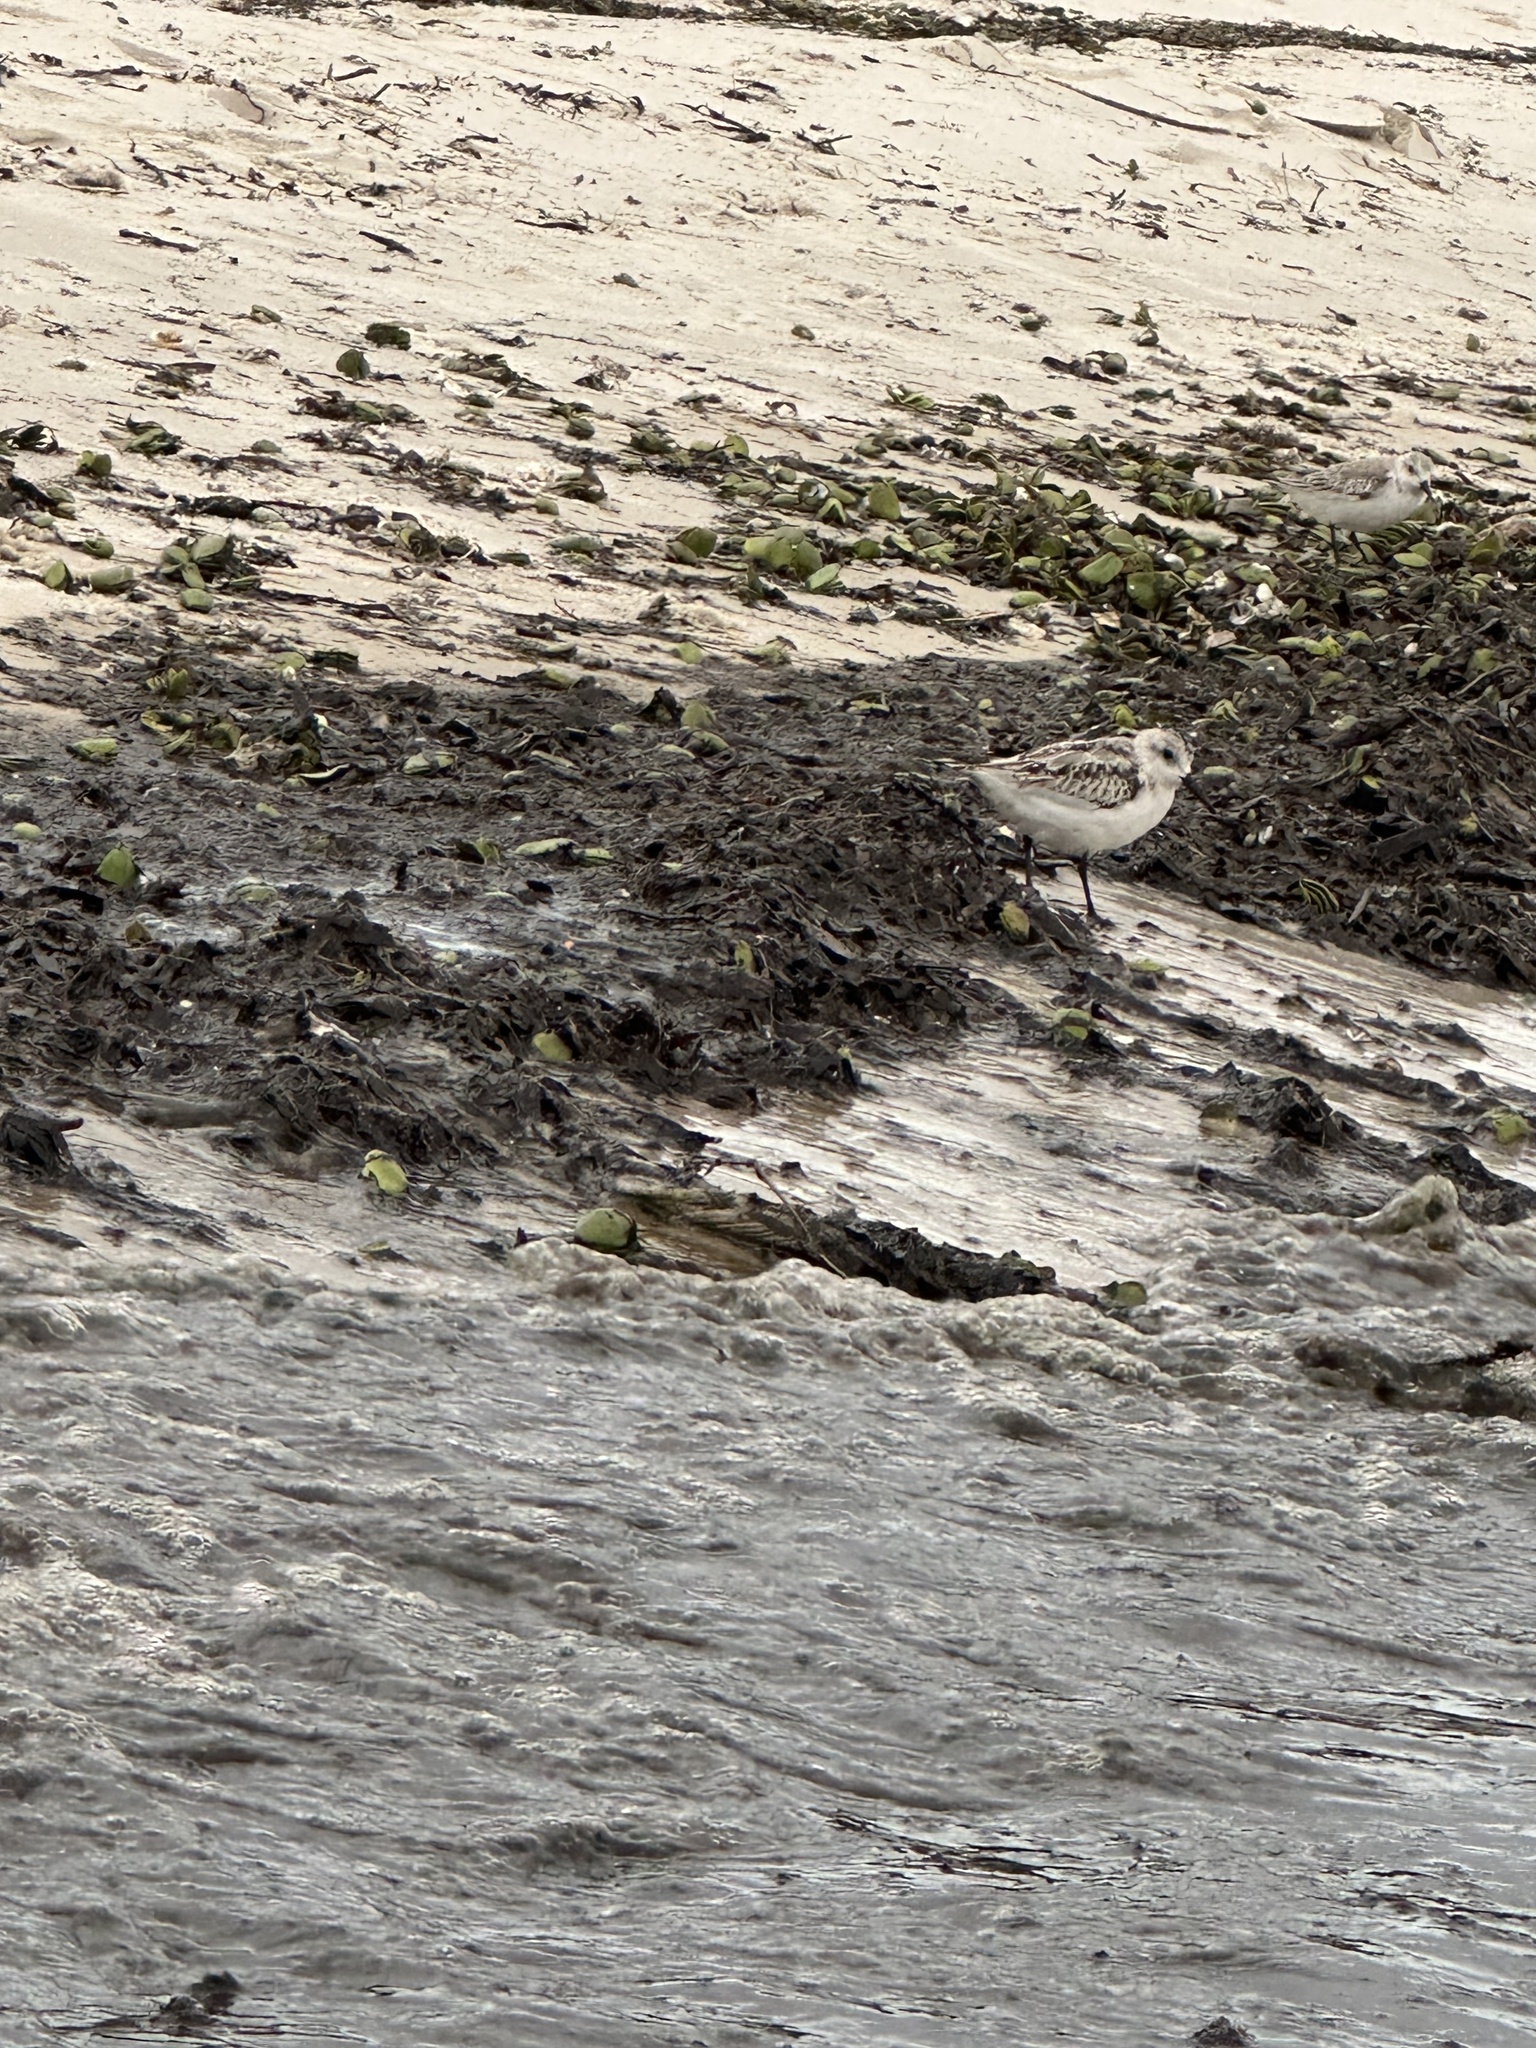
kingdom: Animalia
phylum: Chordata
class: Aves
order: Charadriiformes
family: Scolopacidae
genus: Calidris
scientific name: Calidris alba
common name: Sanderling
